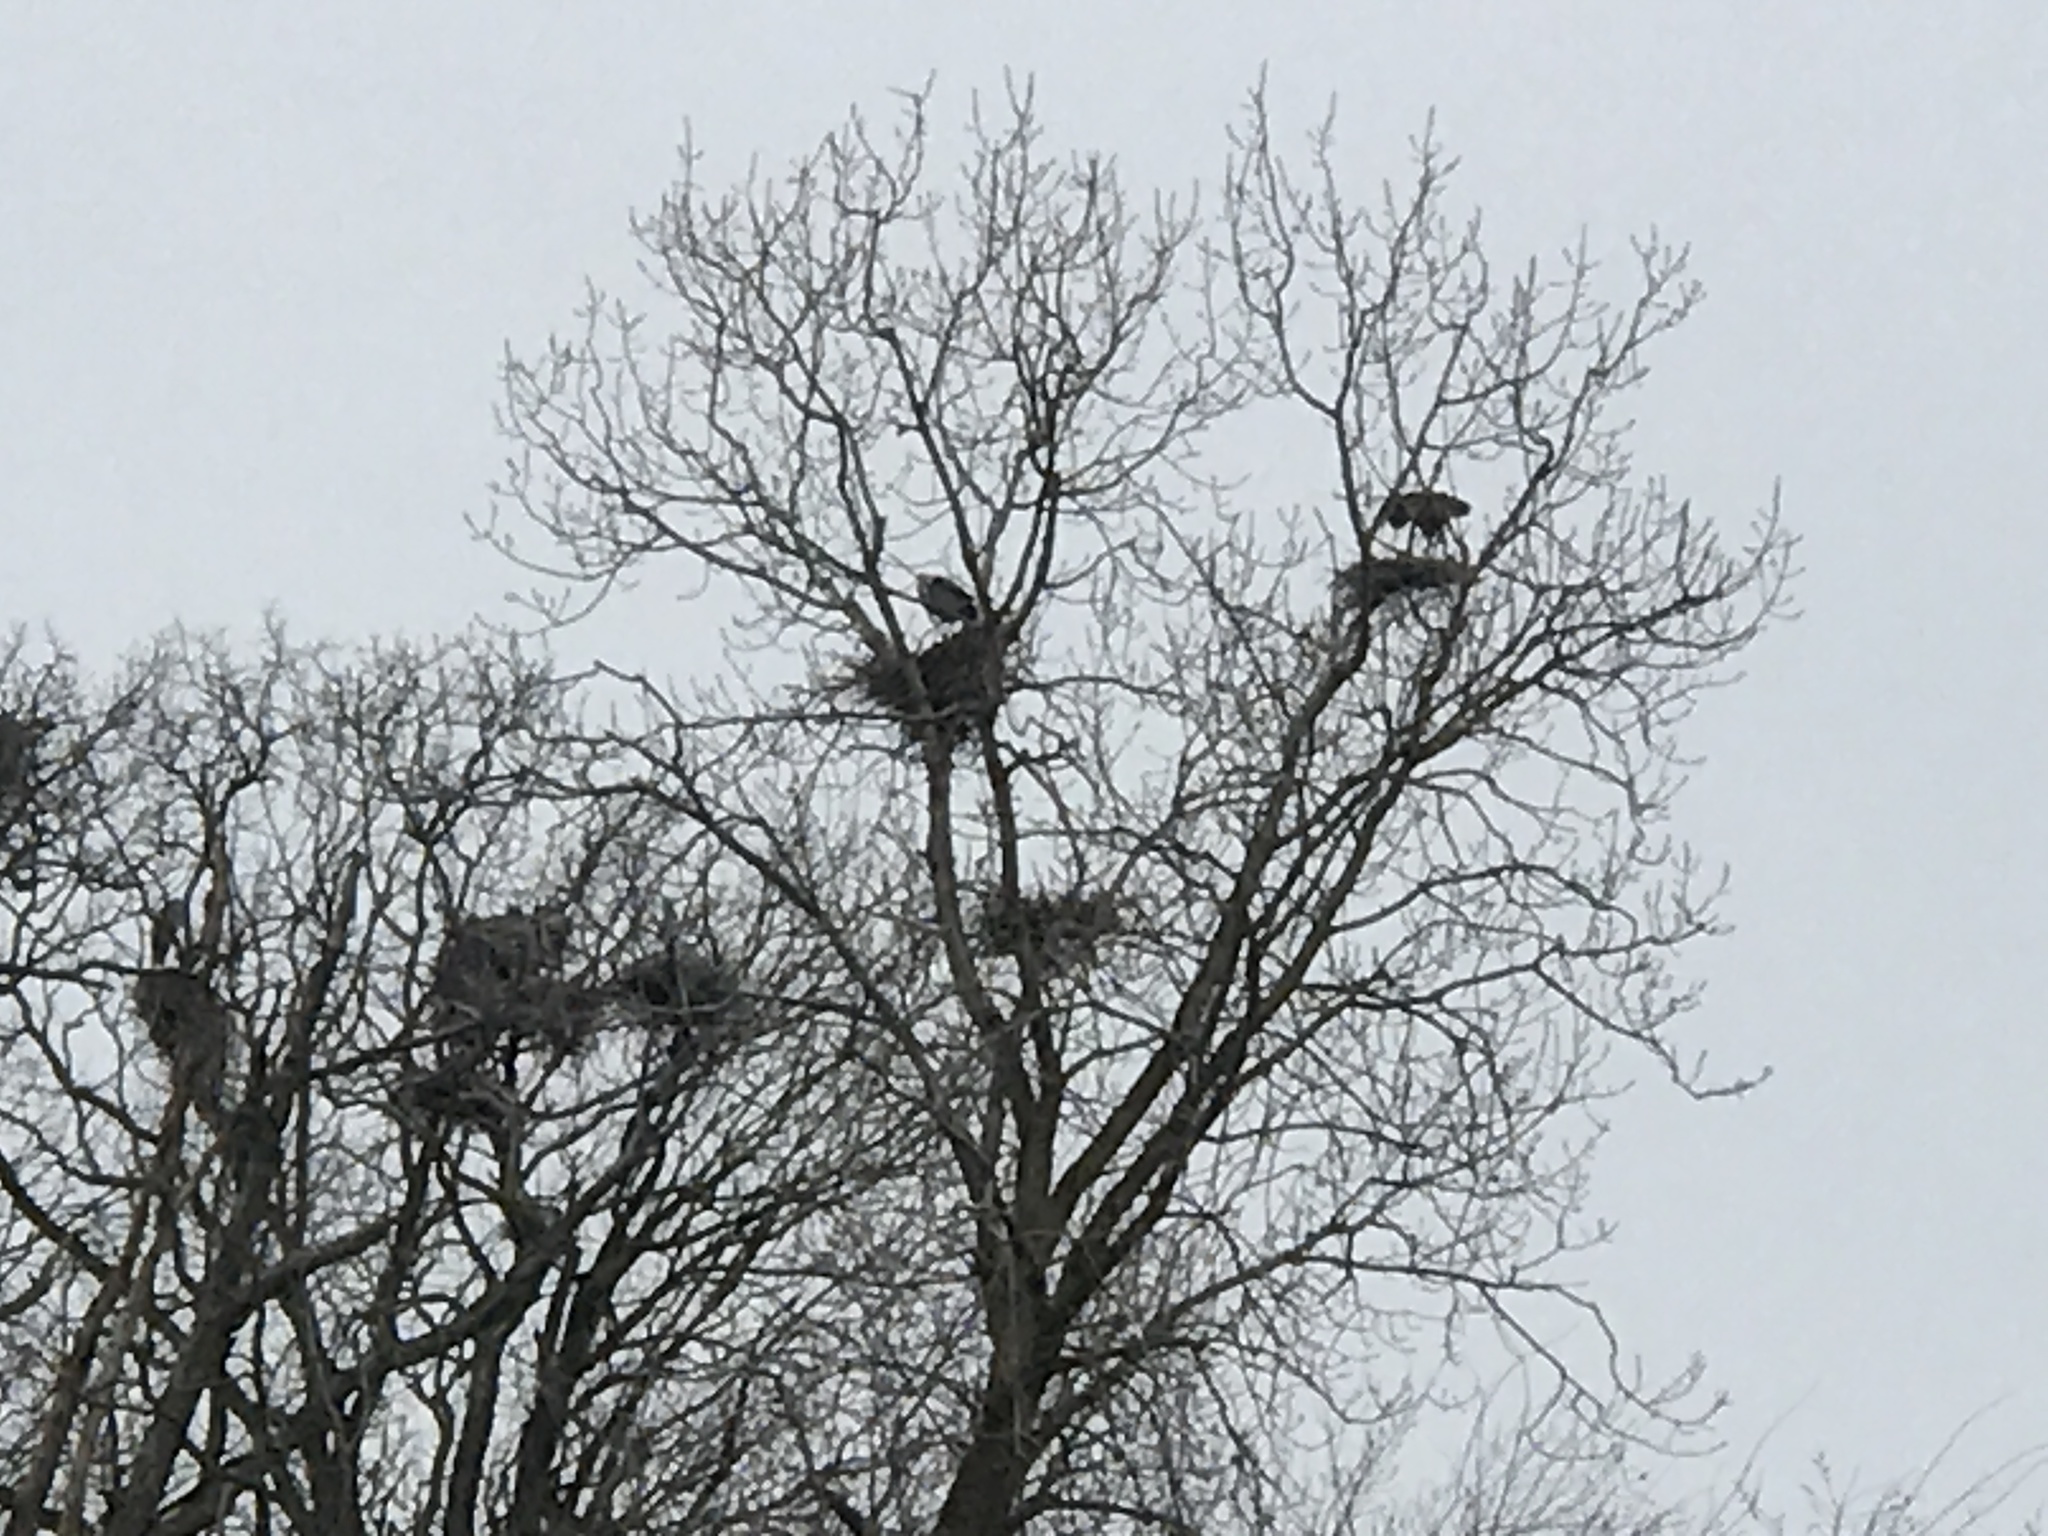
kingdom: Animalia
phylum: Chordata
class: Aves
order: Pelecaniformes
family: Ardeidae
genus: Ardea
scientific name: Ardea herodias
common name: Great blue heron
